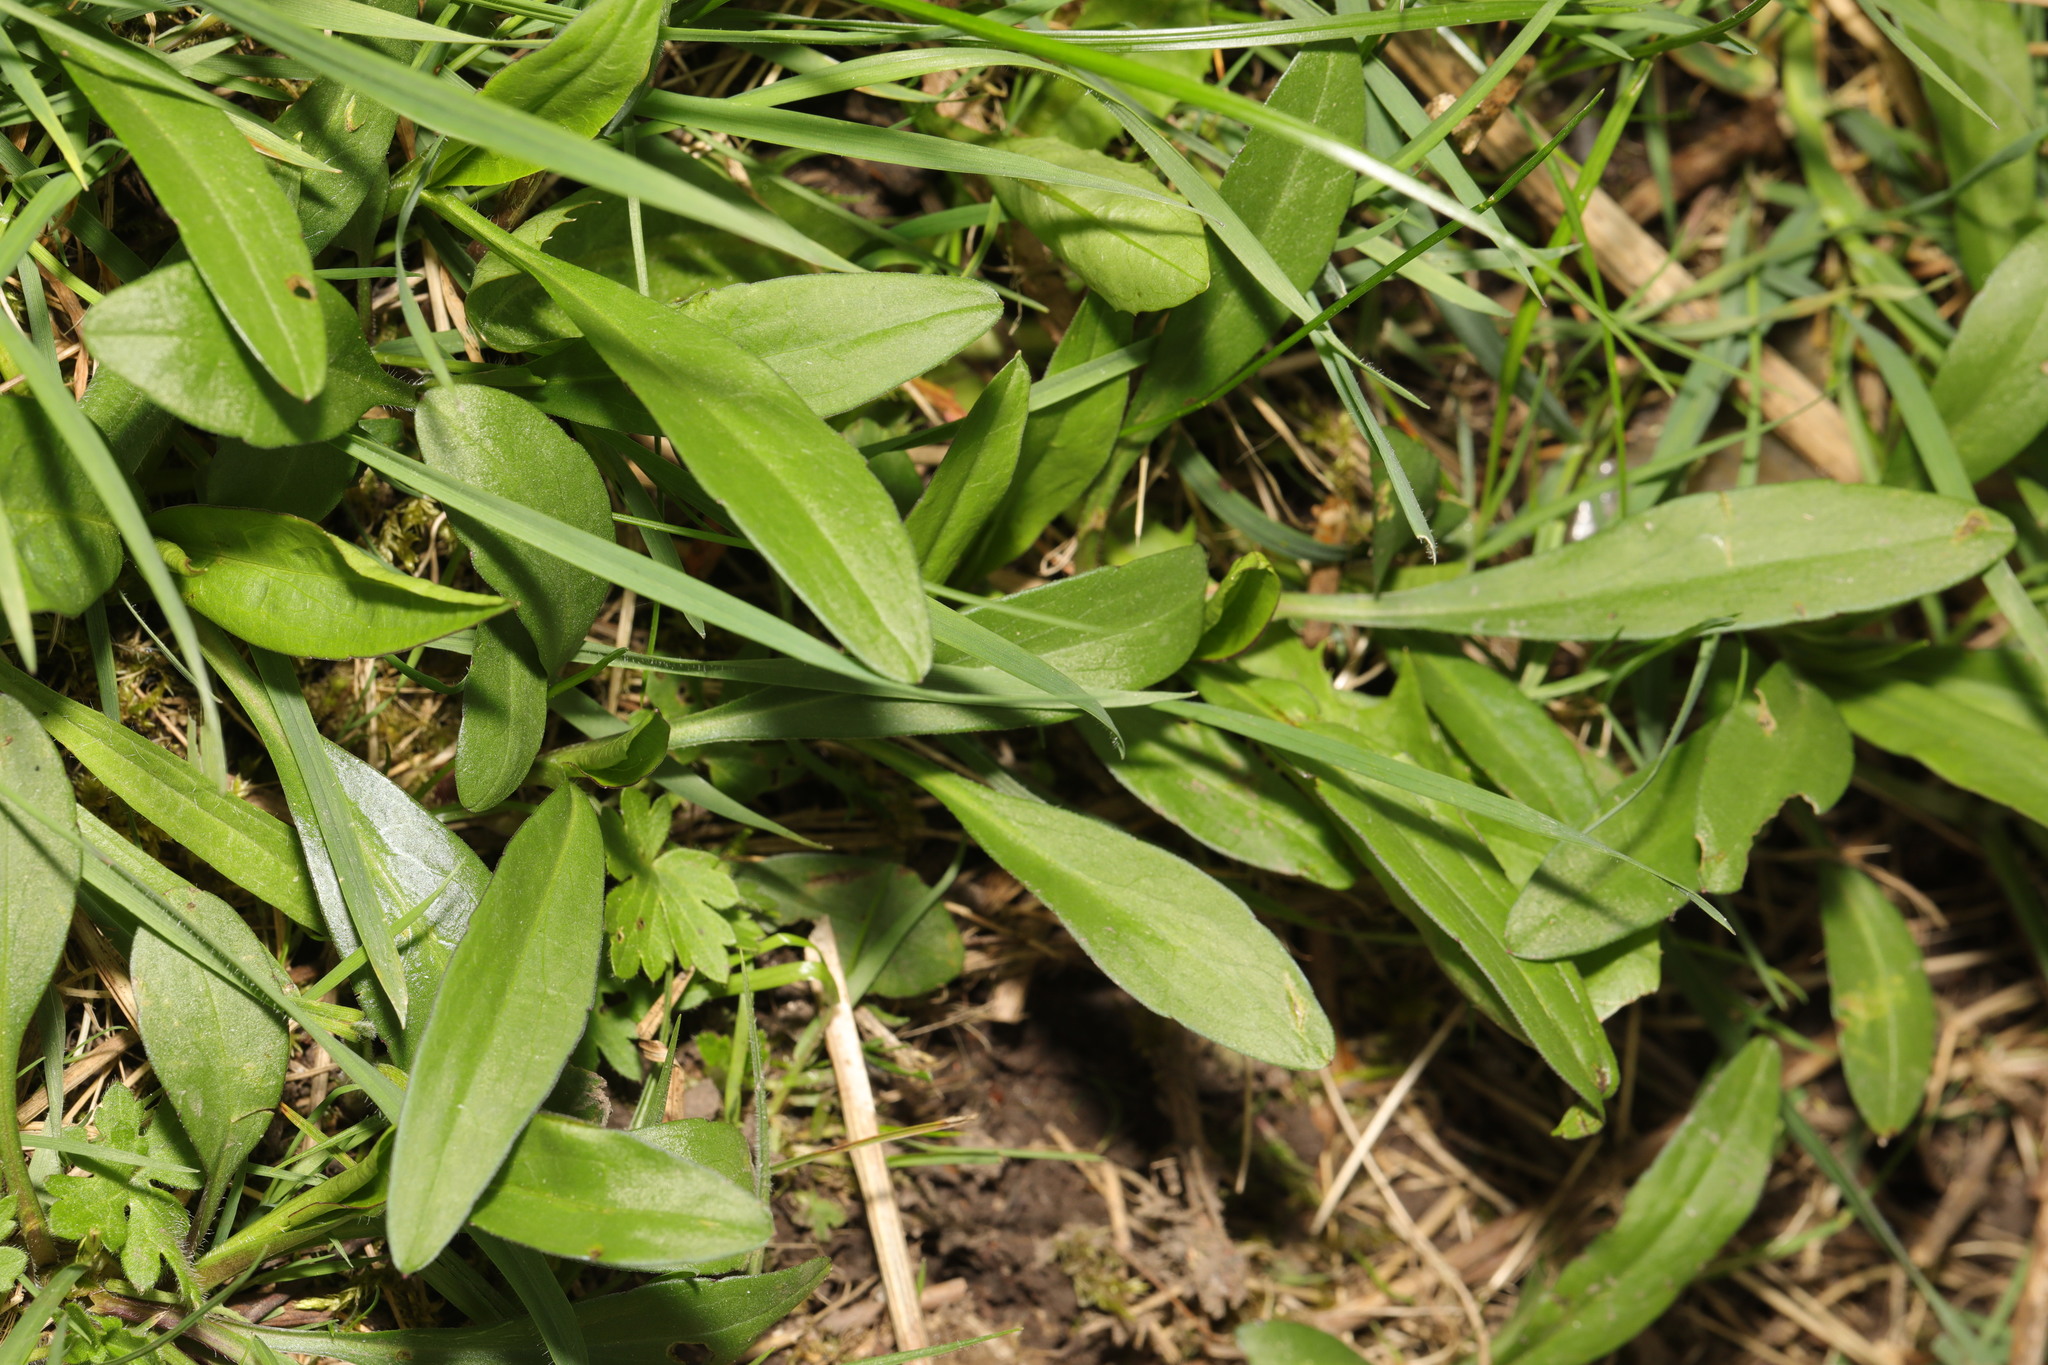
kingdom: Plantae
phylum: Tracheophyta
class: Magnoliopsida
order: Caryophyllales
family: Caryophyllaceae
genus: Silene
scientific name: Silene flos-cuculi
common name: Ragged-robin
